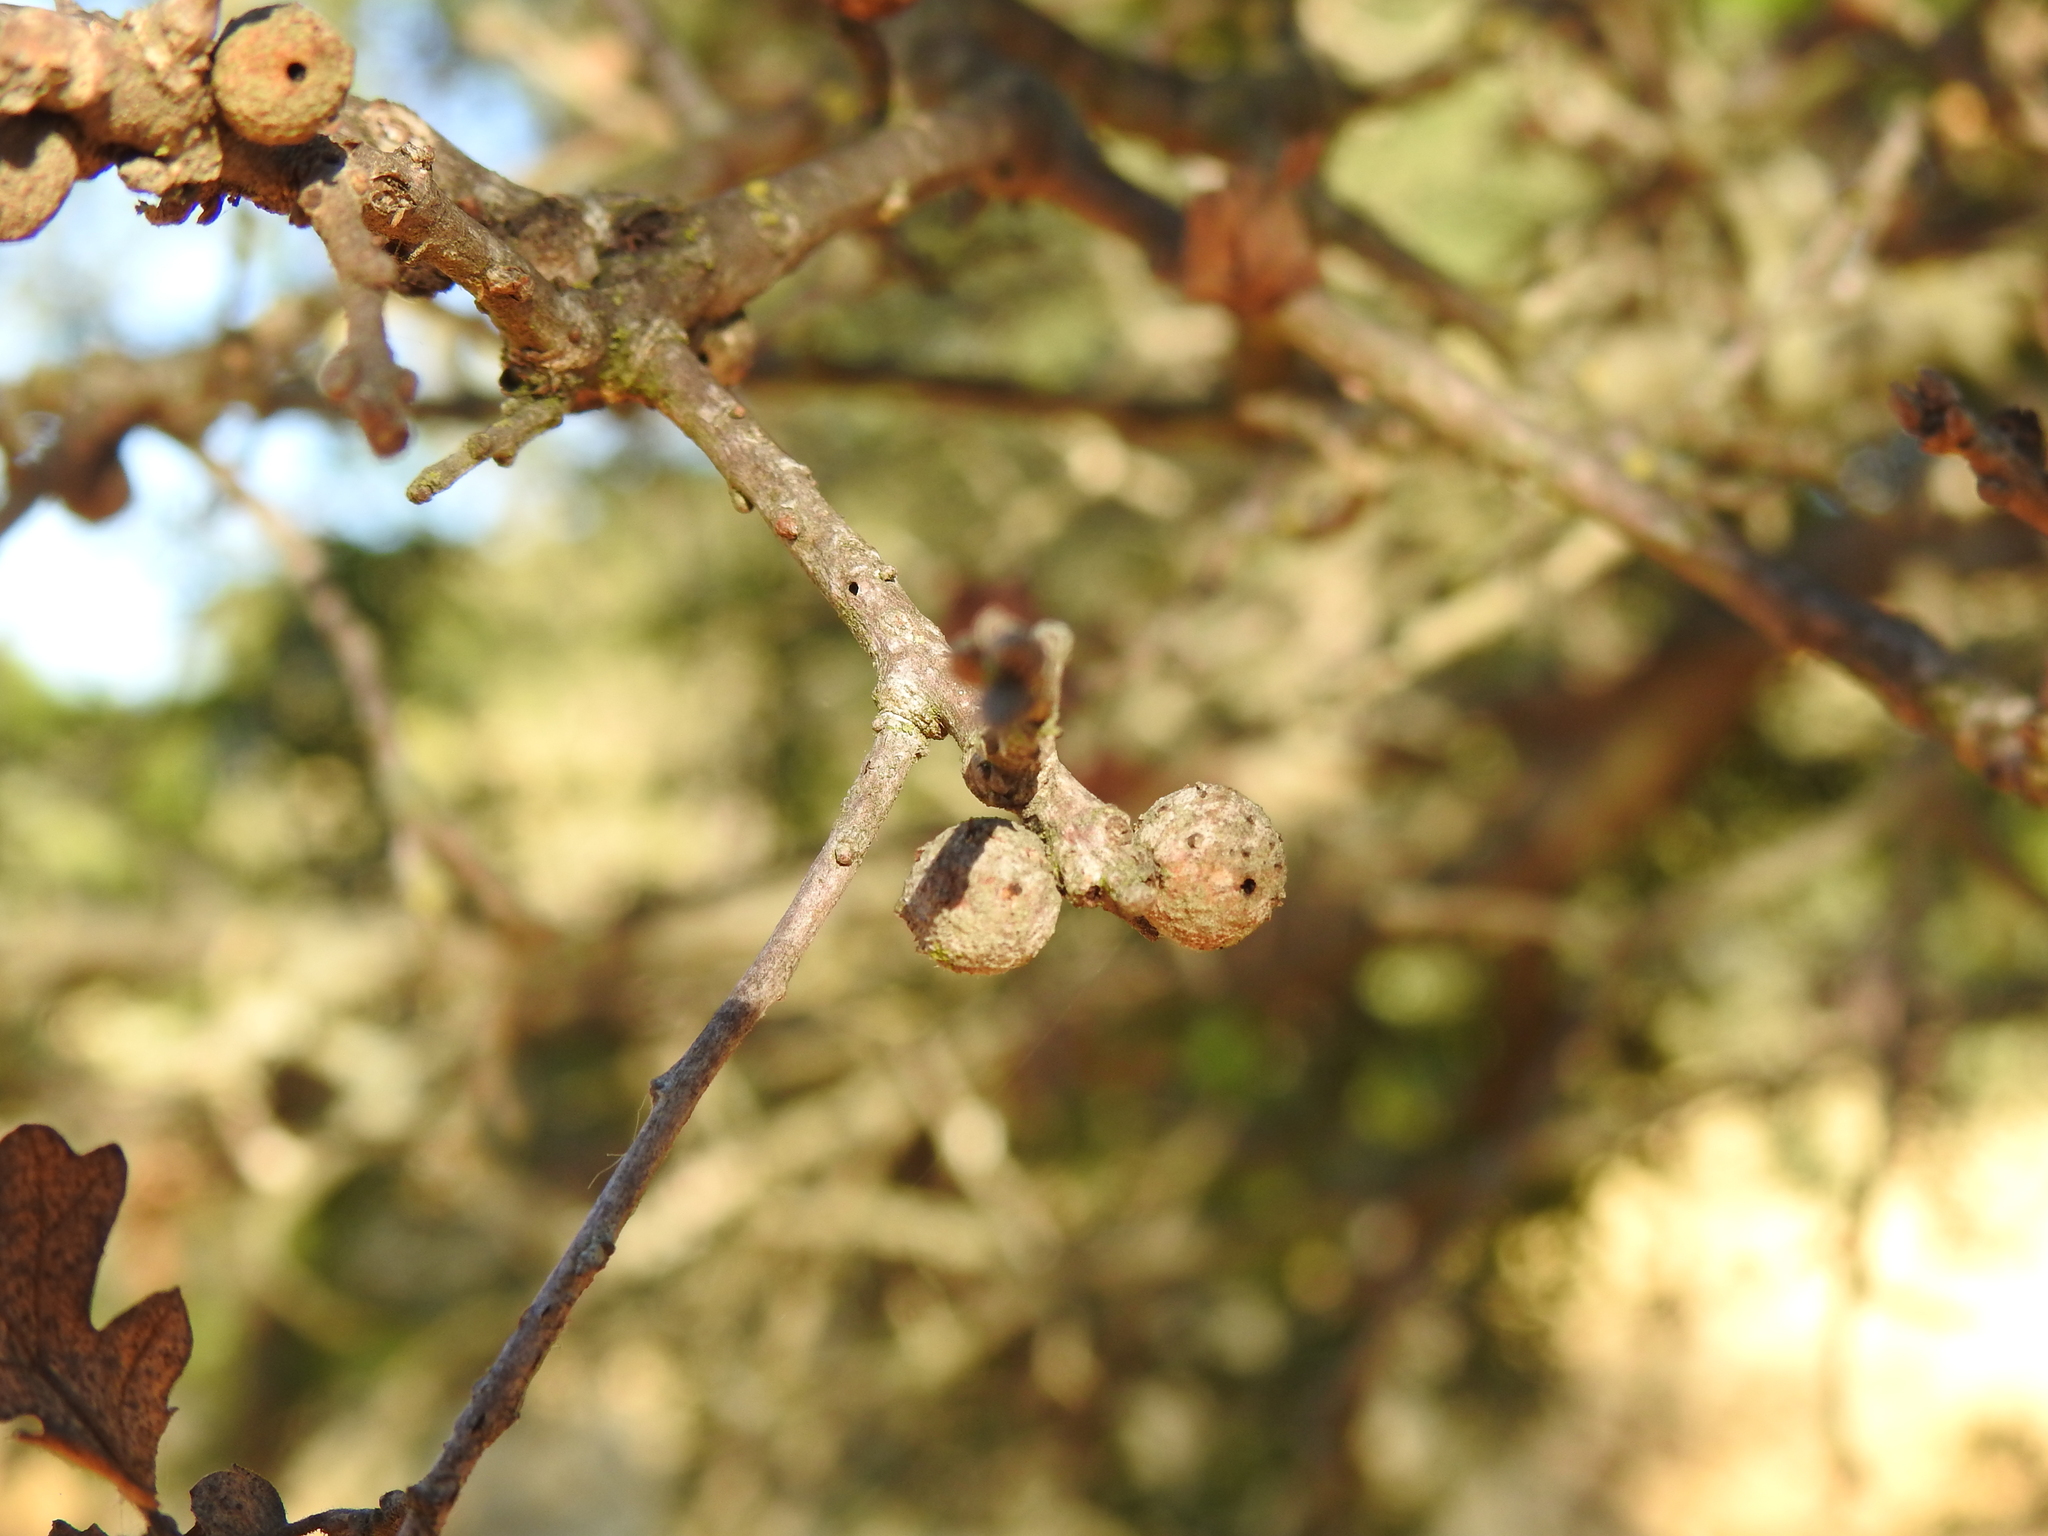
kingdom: Animalia
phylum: Arthropoda
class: Insecta
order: Hymenoptera
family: Cynipidae
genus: Burnettweldia
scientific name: Burnettweldia
